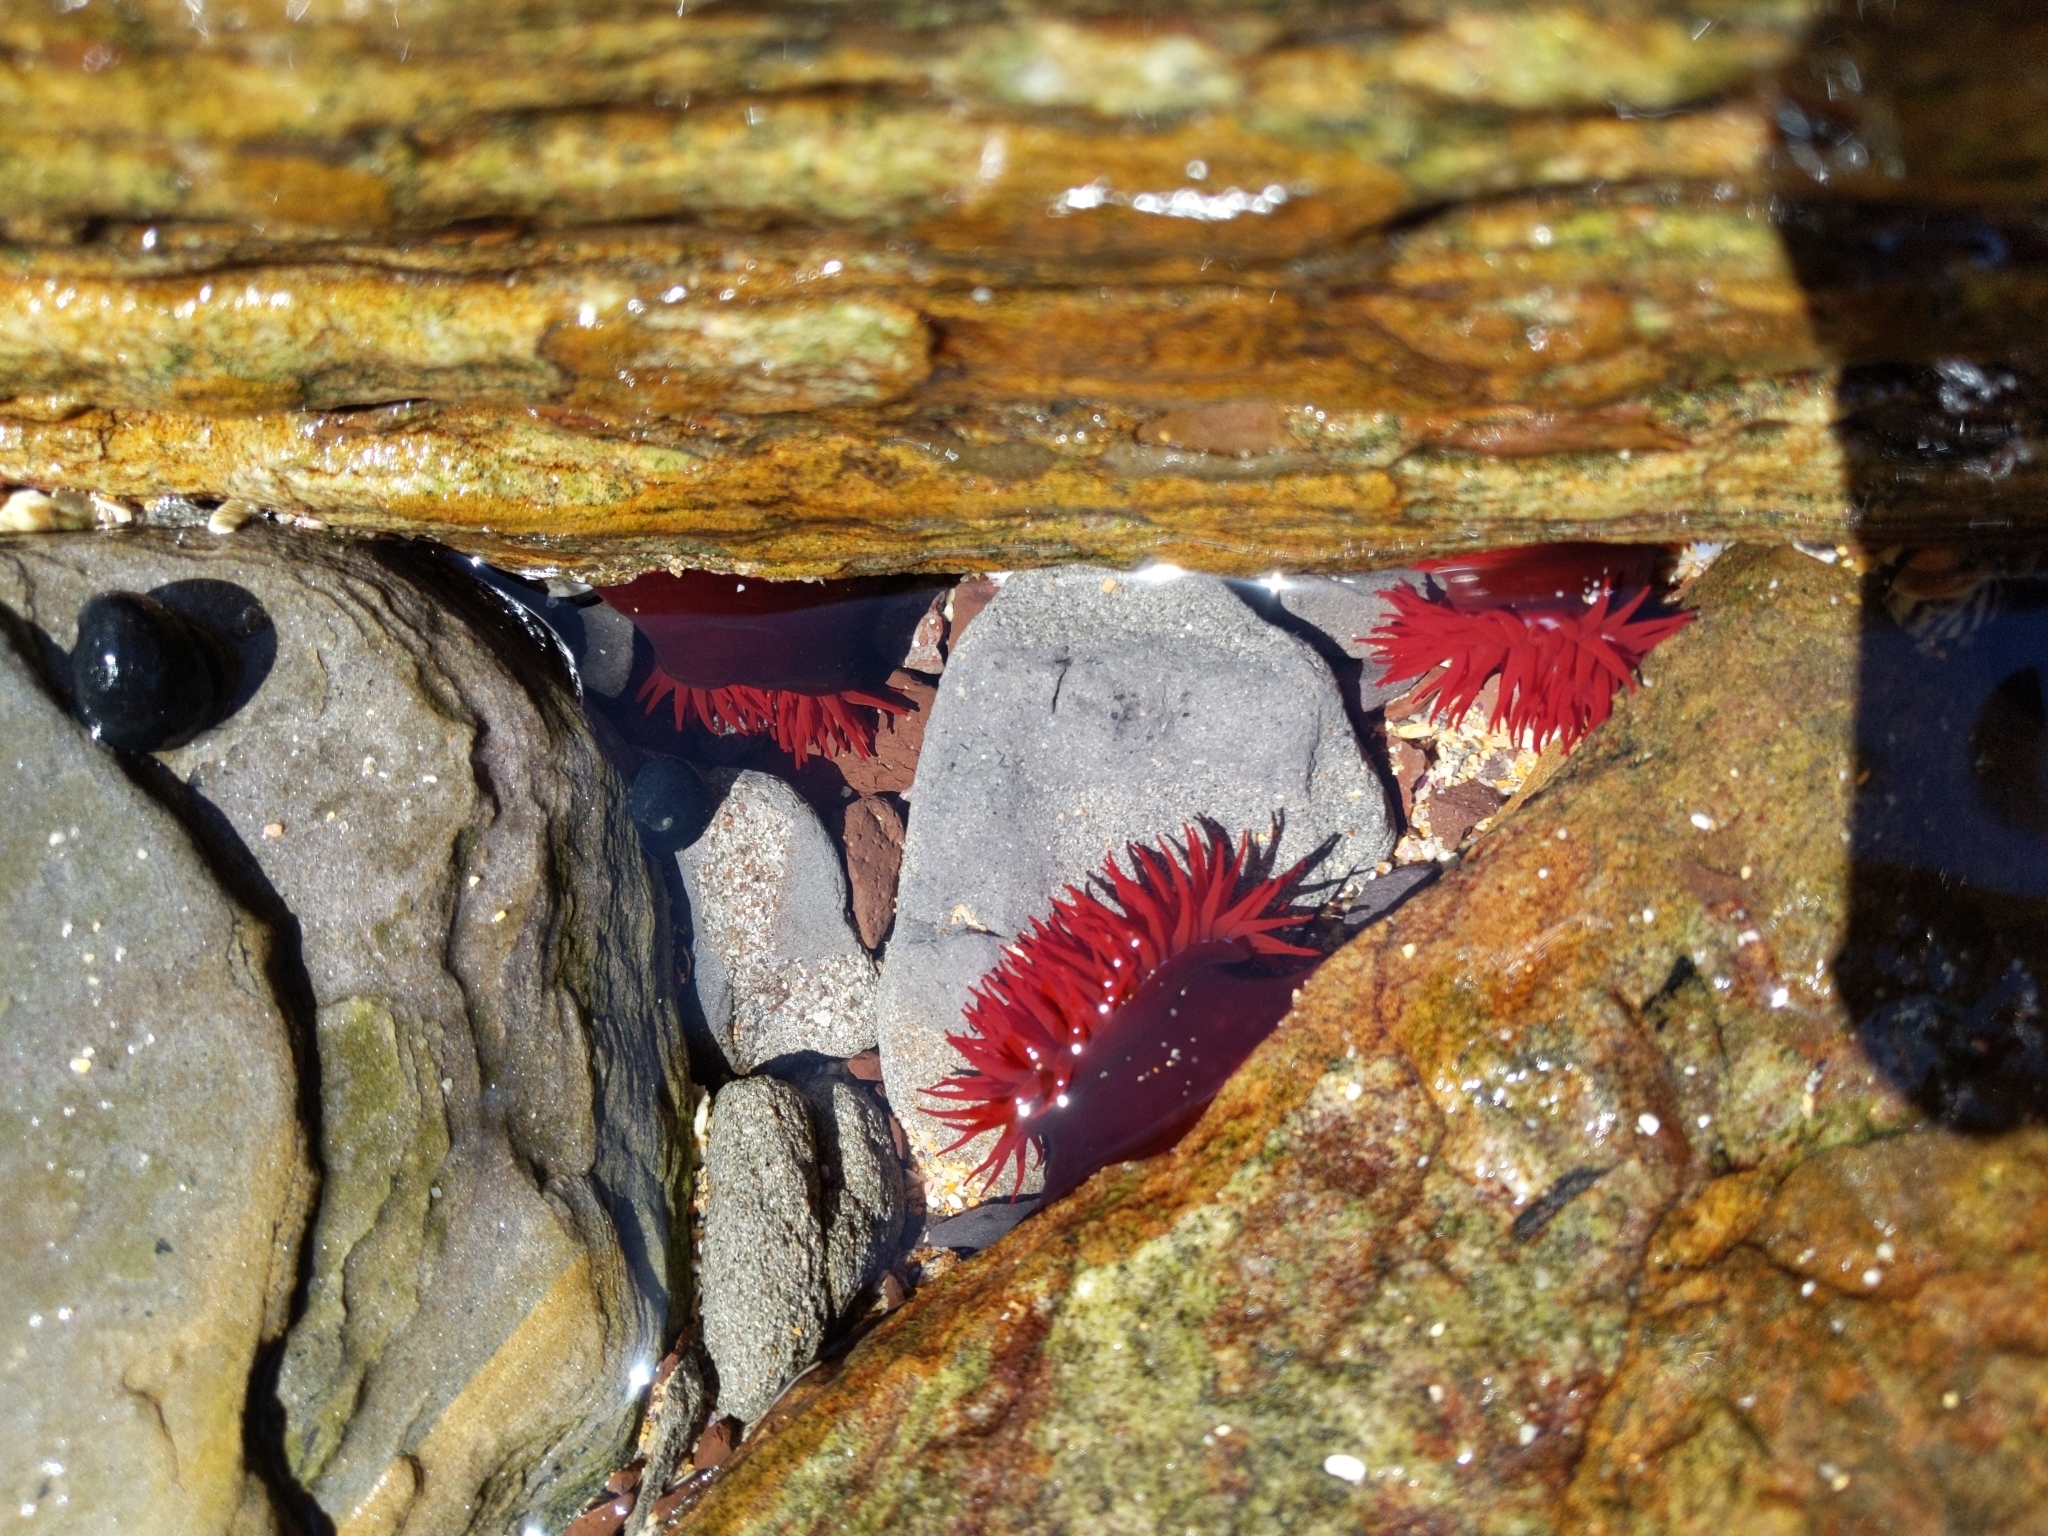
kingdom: Animalia
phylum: Cnidaria
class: Anthozoa
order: Actiniaria
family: Actiniidae
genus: Actinia
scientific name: Actinia tenebrosa
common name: Waratah anemone
